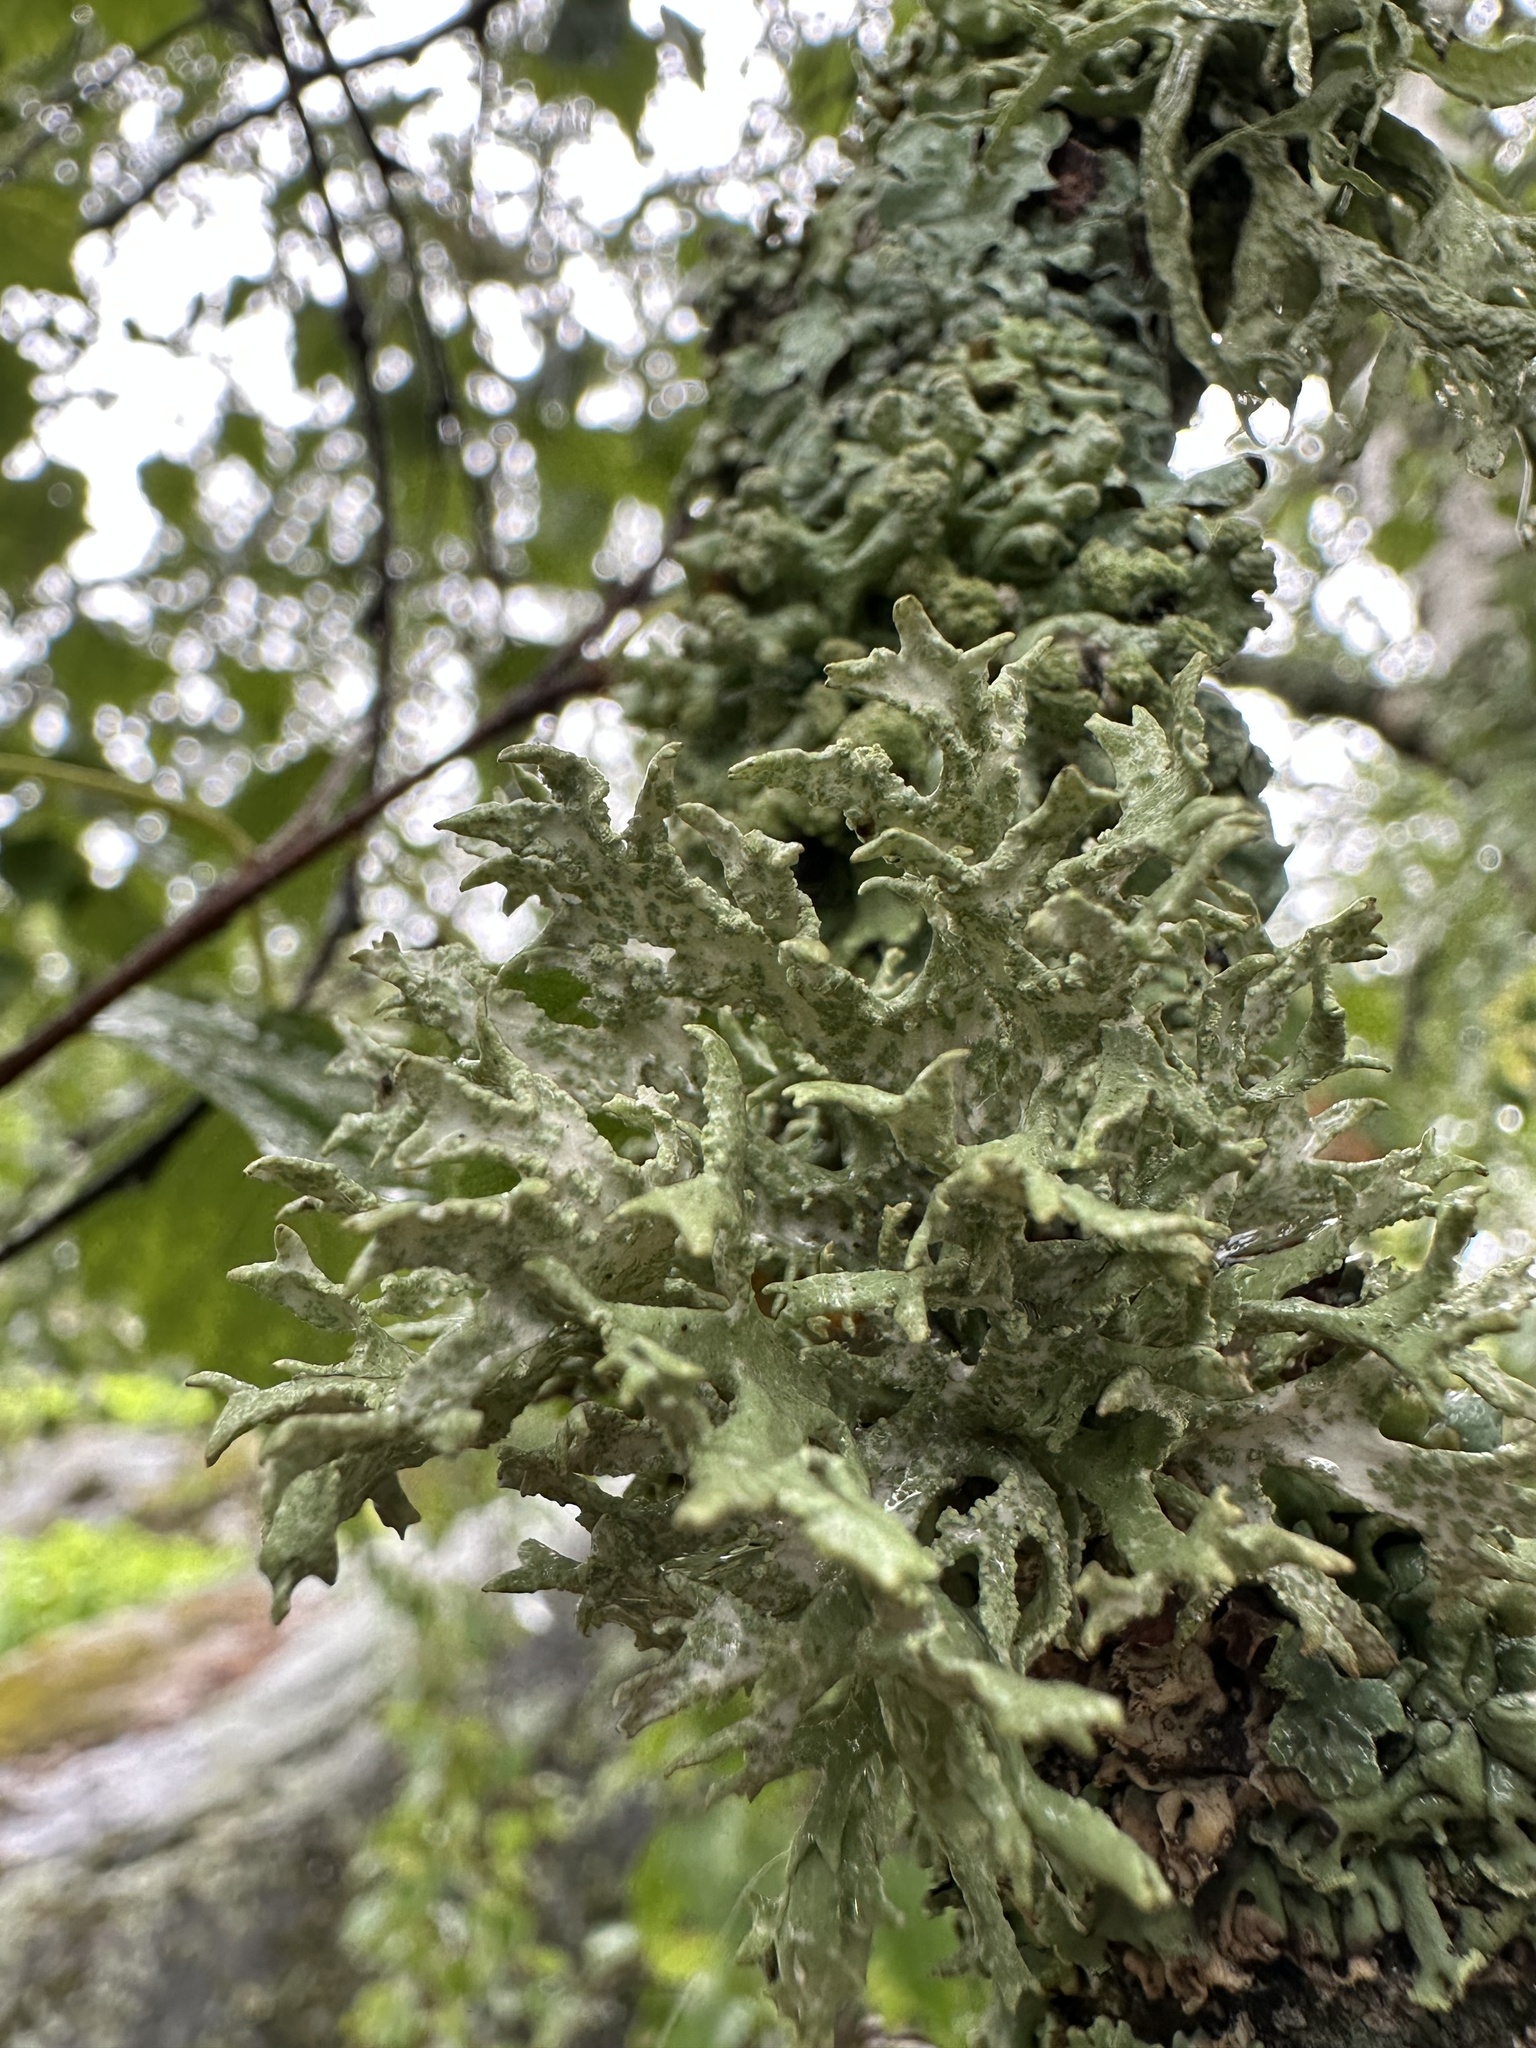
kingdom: Fungi
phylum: Ascomycota
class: Lecanoromycetes
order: Lecanorales
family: Parmeliaceae
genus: Evernia
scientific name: Evernia prunastri
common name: Oak moss
